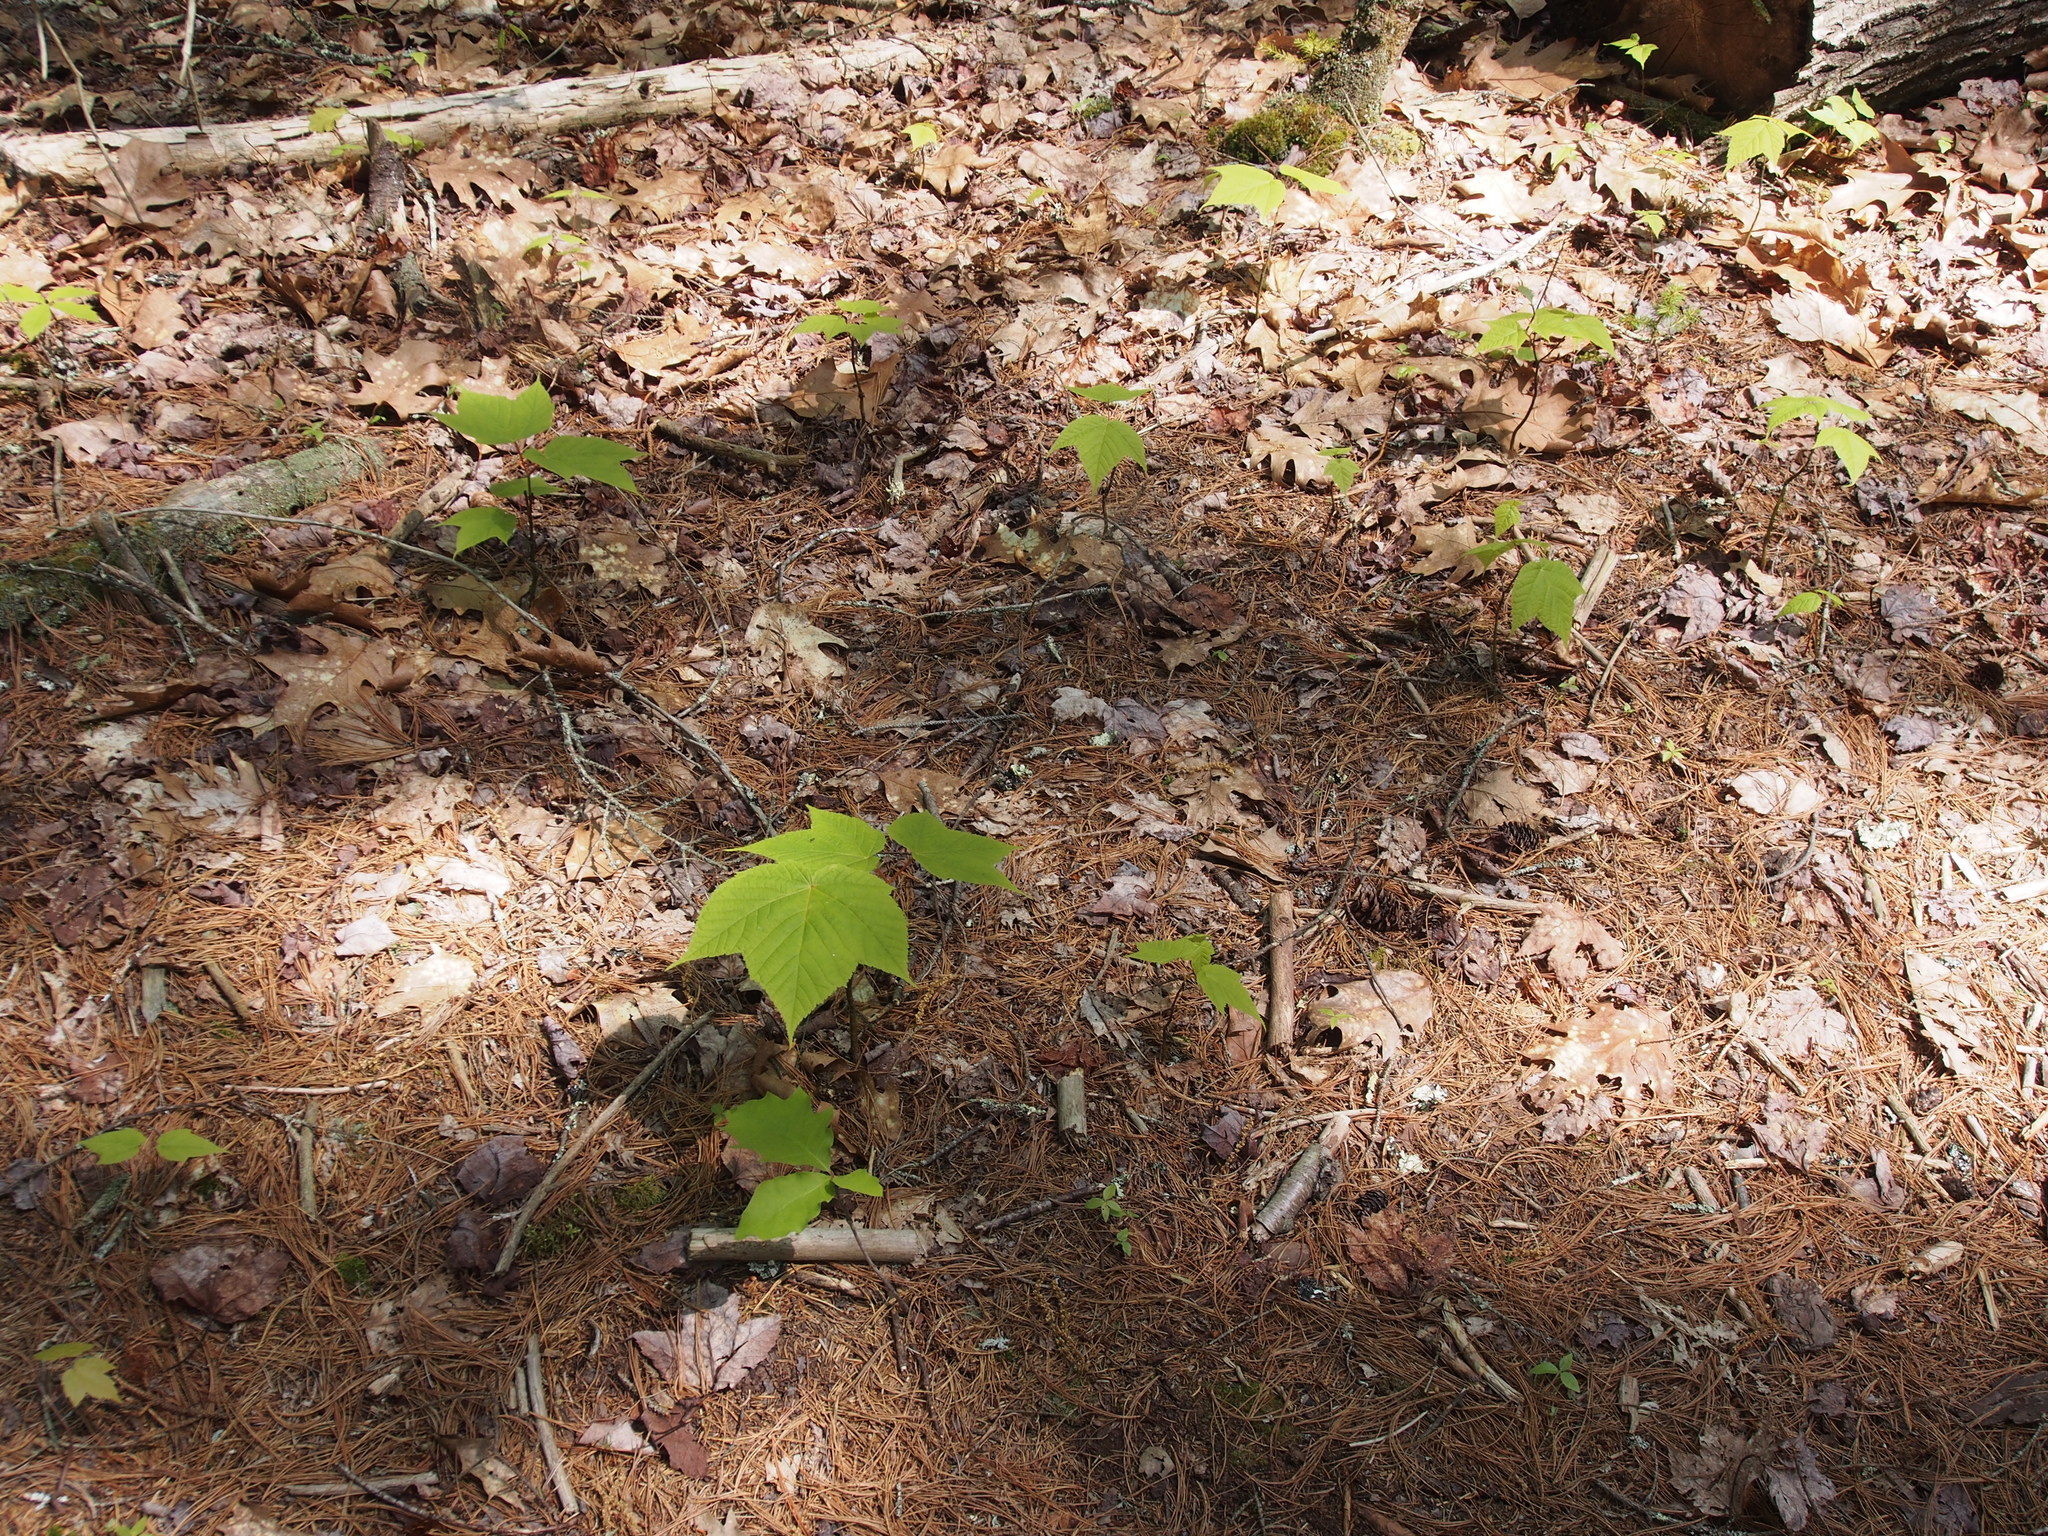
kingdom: Plantae
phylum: Tracheophyta
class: Magnoliopsida
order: Sapindales
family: Sapindaceae
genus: Acer
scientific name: Acer pensylvanicum
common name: Moosewood
